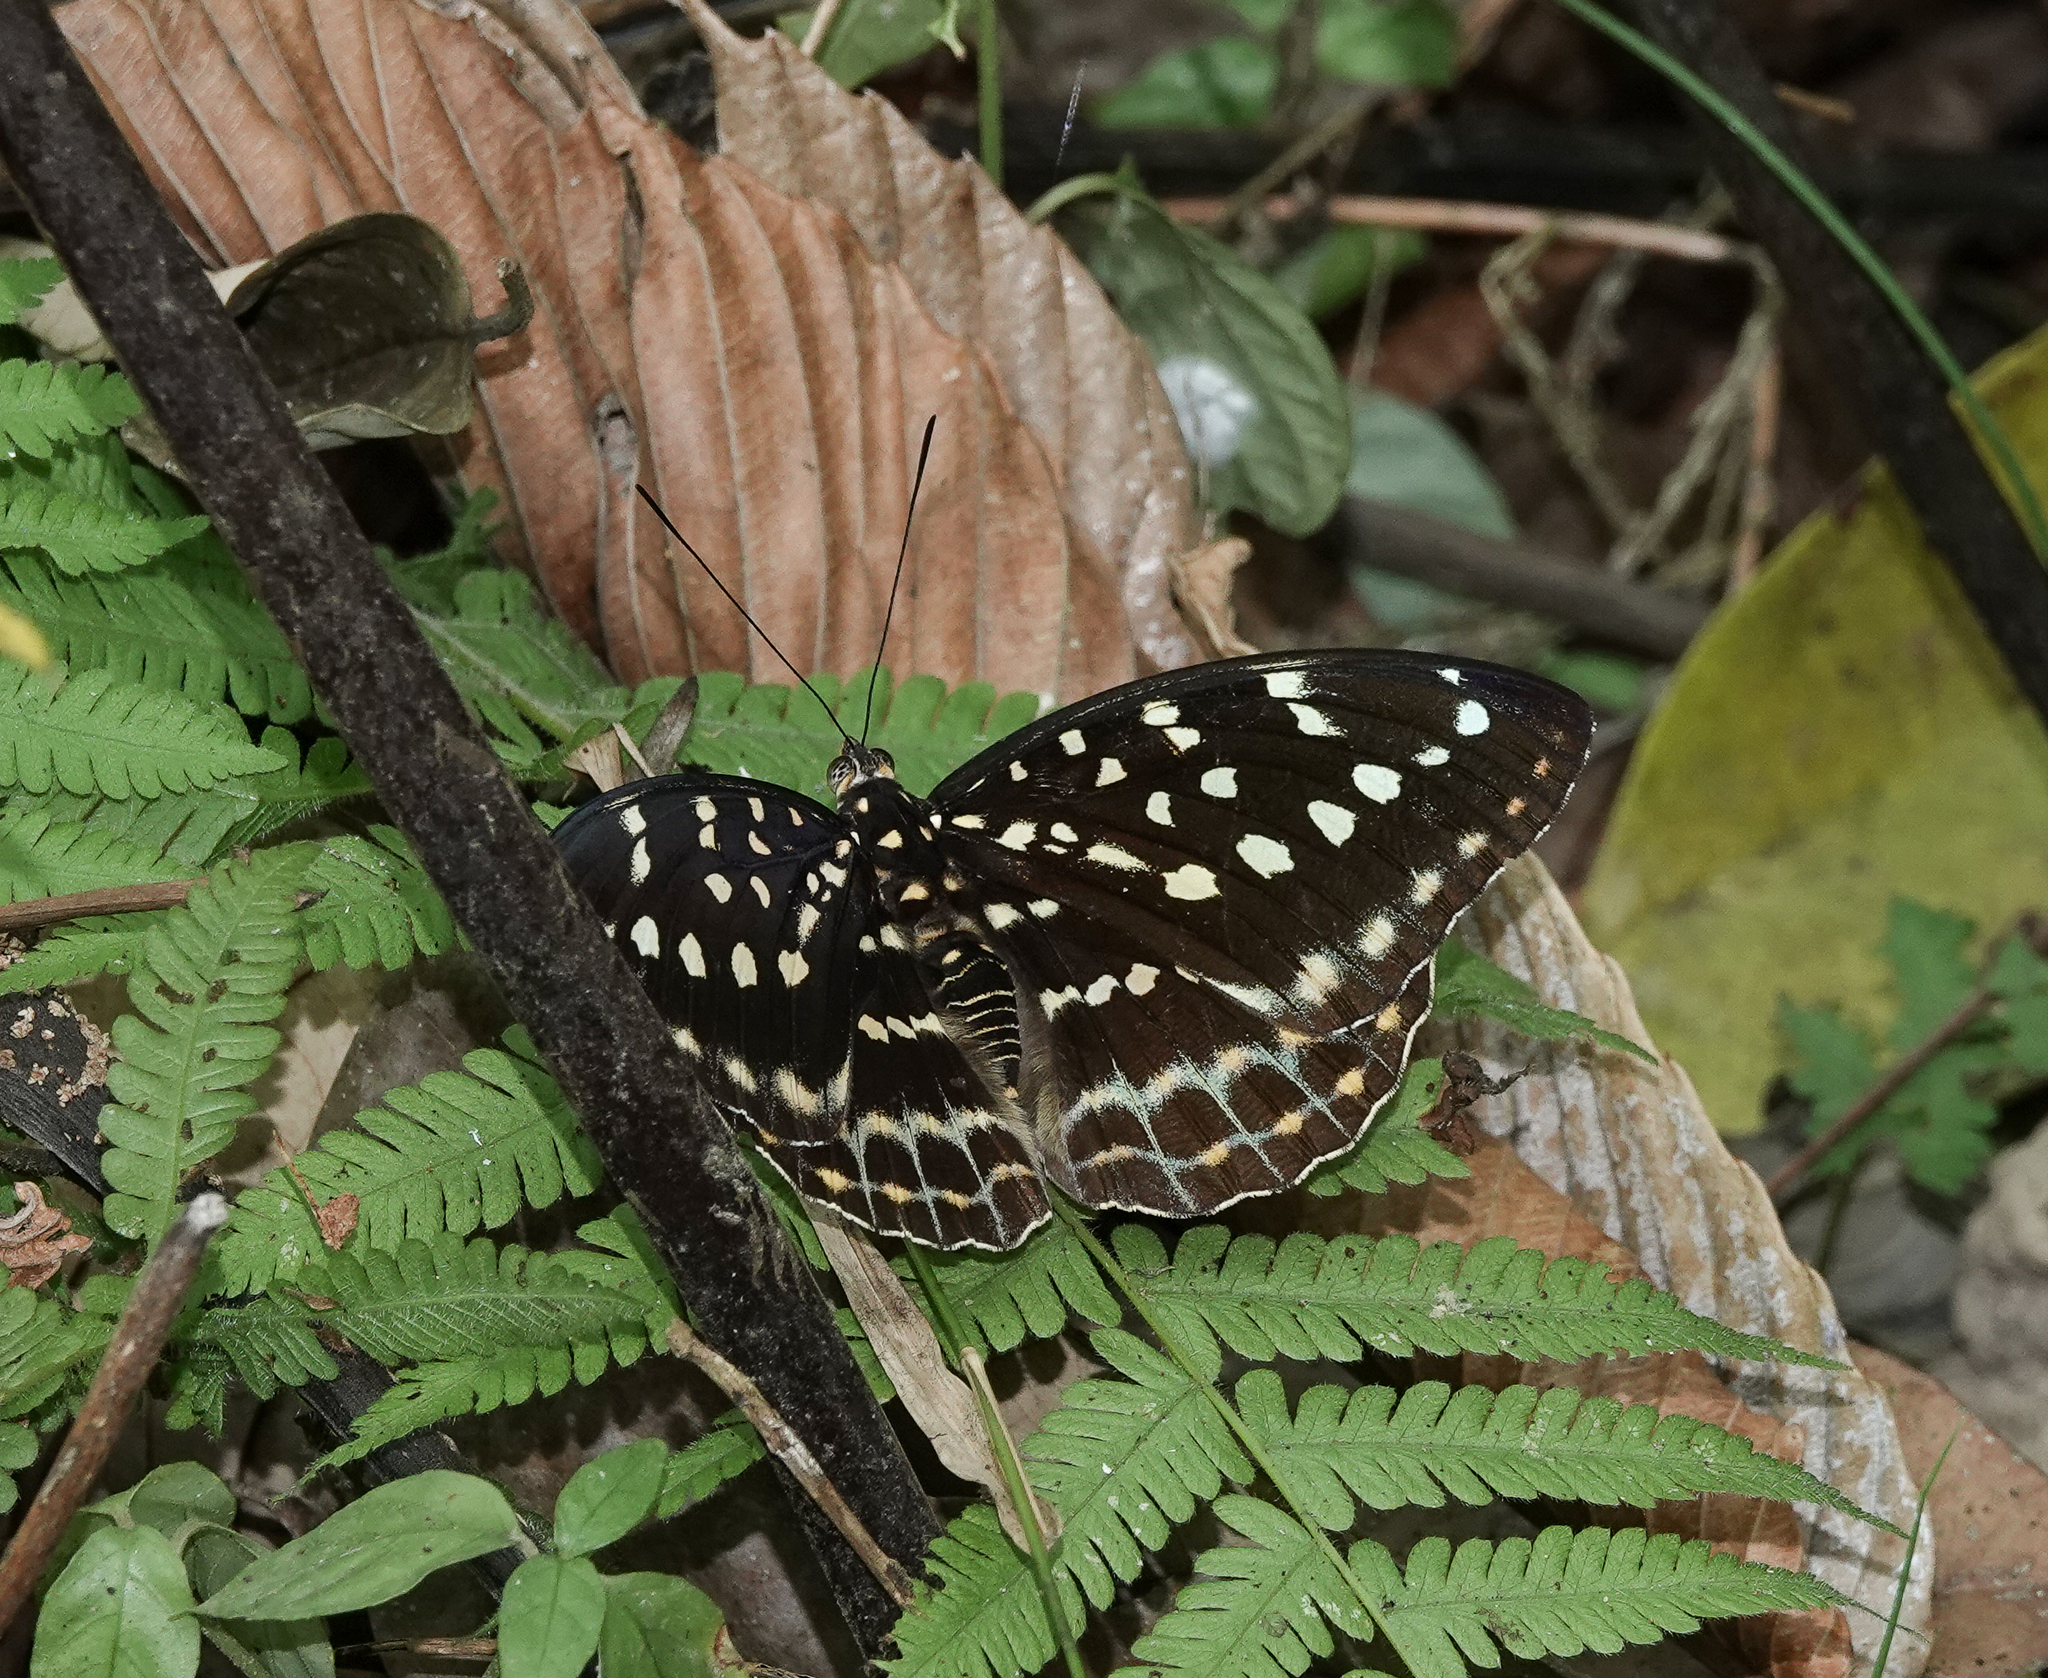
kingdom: Animalia
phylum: Arthropoda
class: Insecta
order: Lepidoptera
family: Nymphalidae
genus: Lexias
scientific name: Lexias dirtea
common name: Black-tipped archduke
